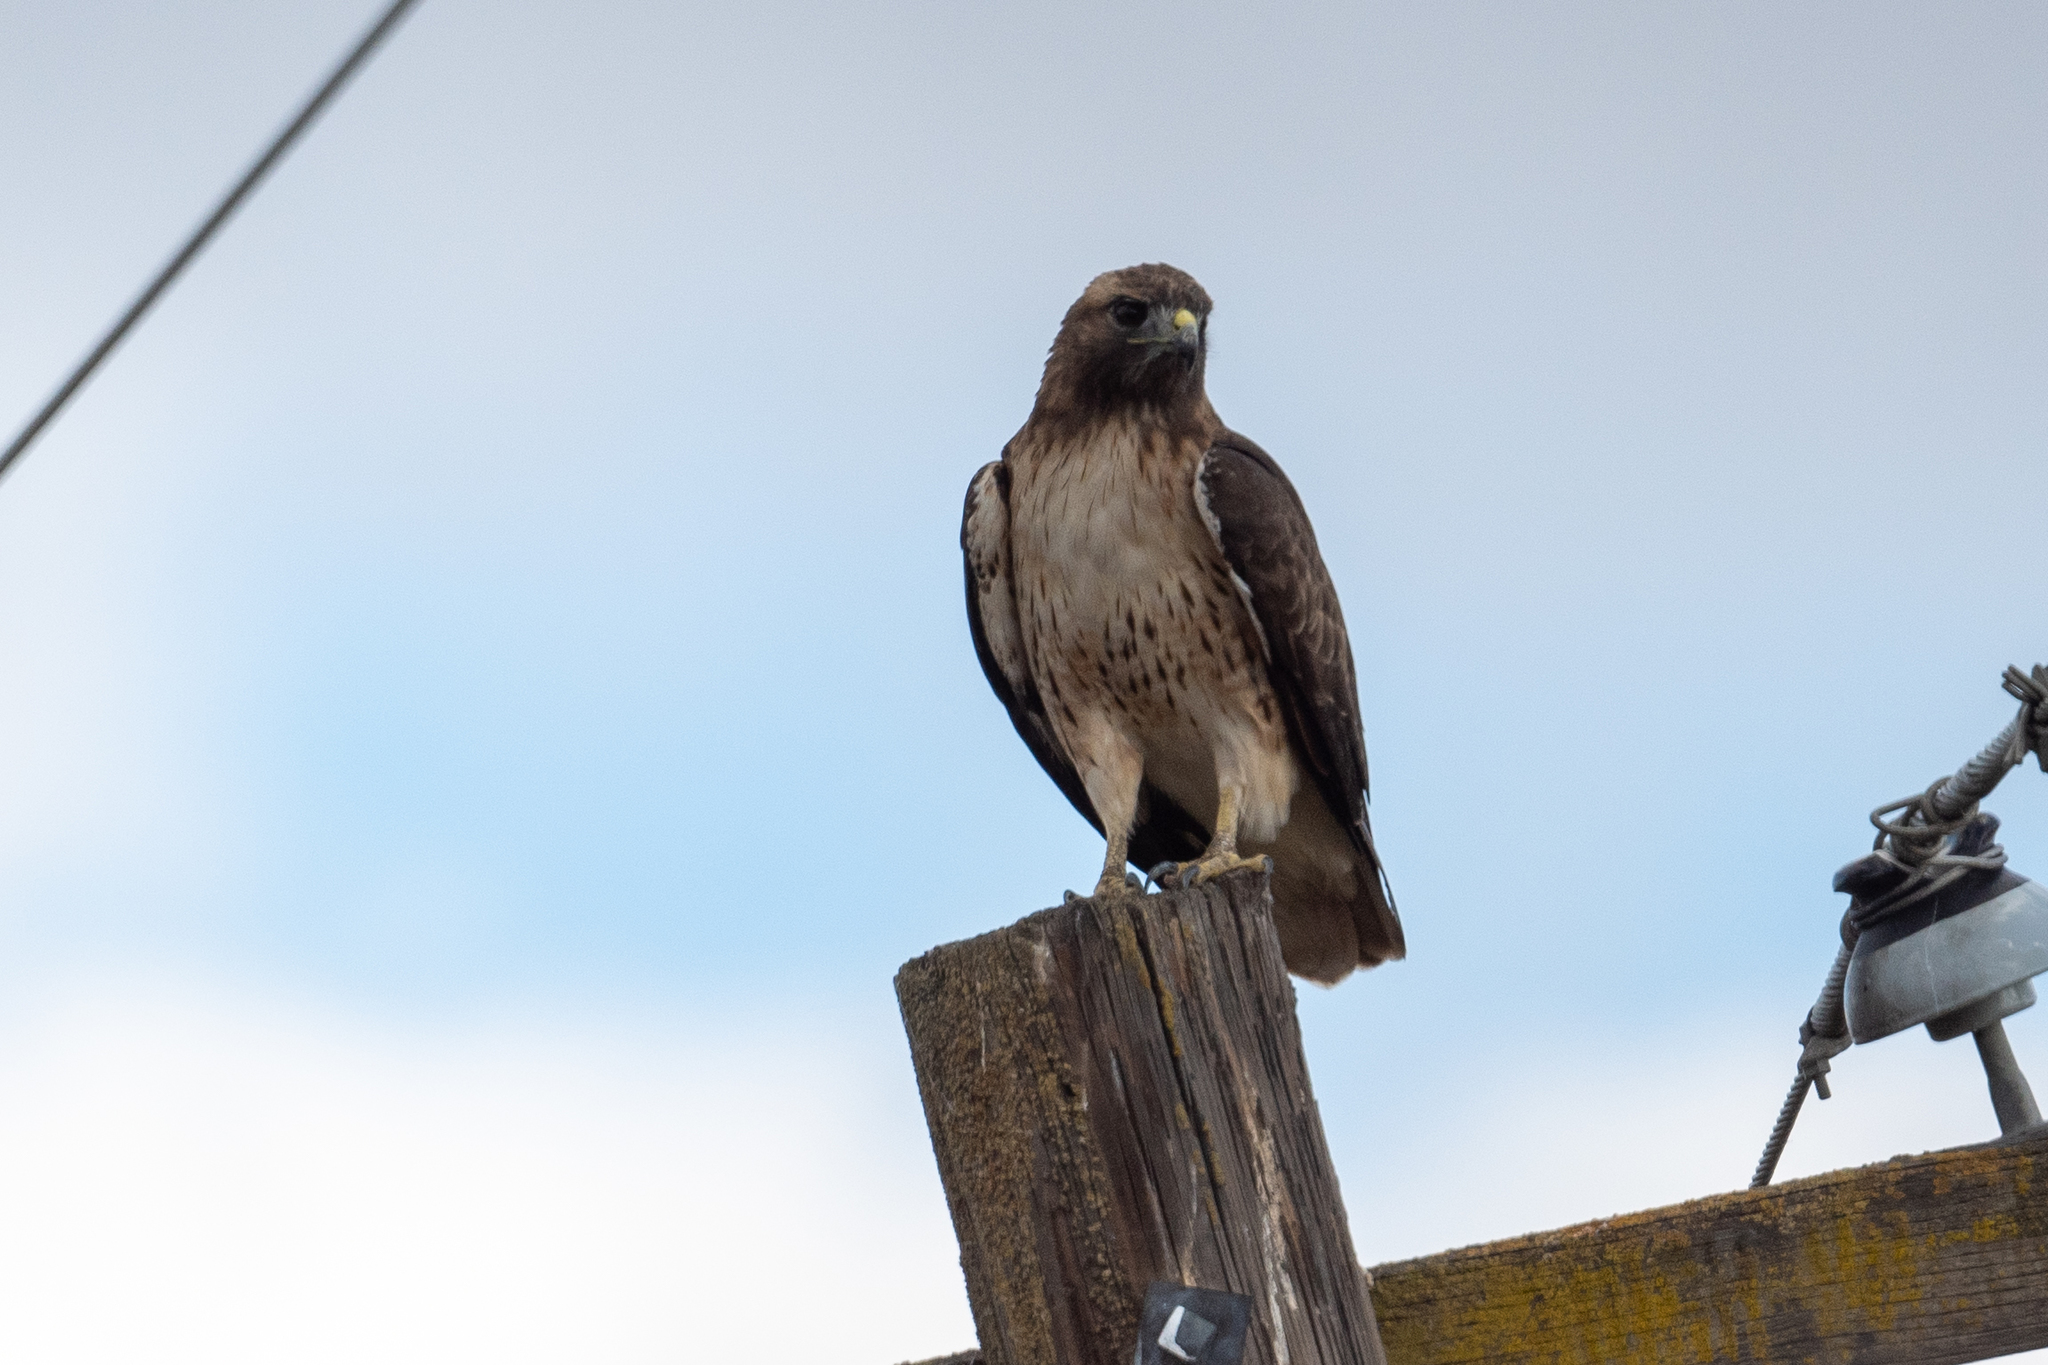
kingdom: Animalia
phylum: Chordata
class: Aves
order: Accipitriformes
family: Accipitridae
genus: Buteo
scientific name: Buteo jamaicensis
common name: Red-tailed hawk
